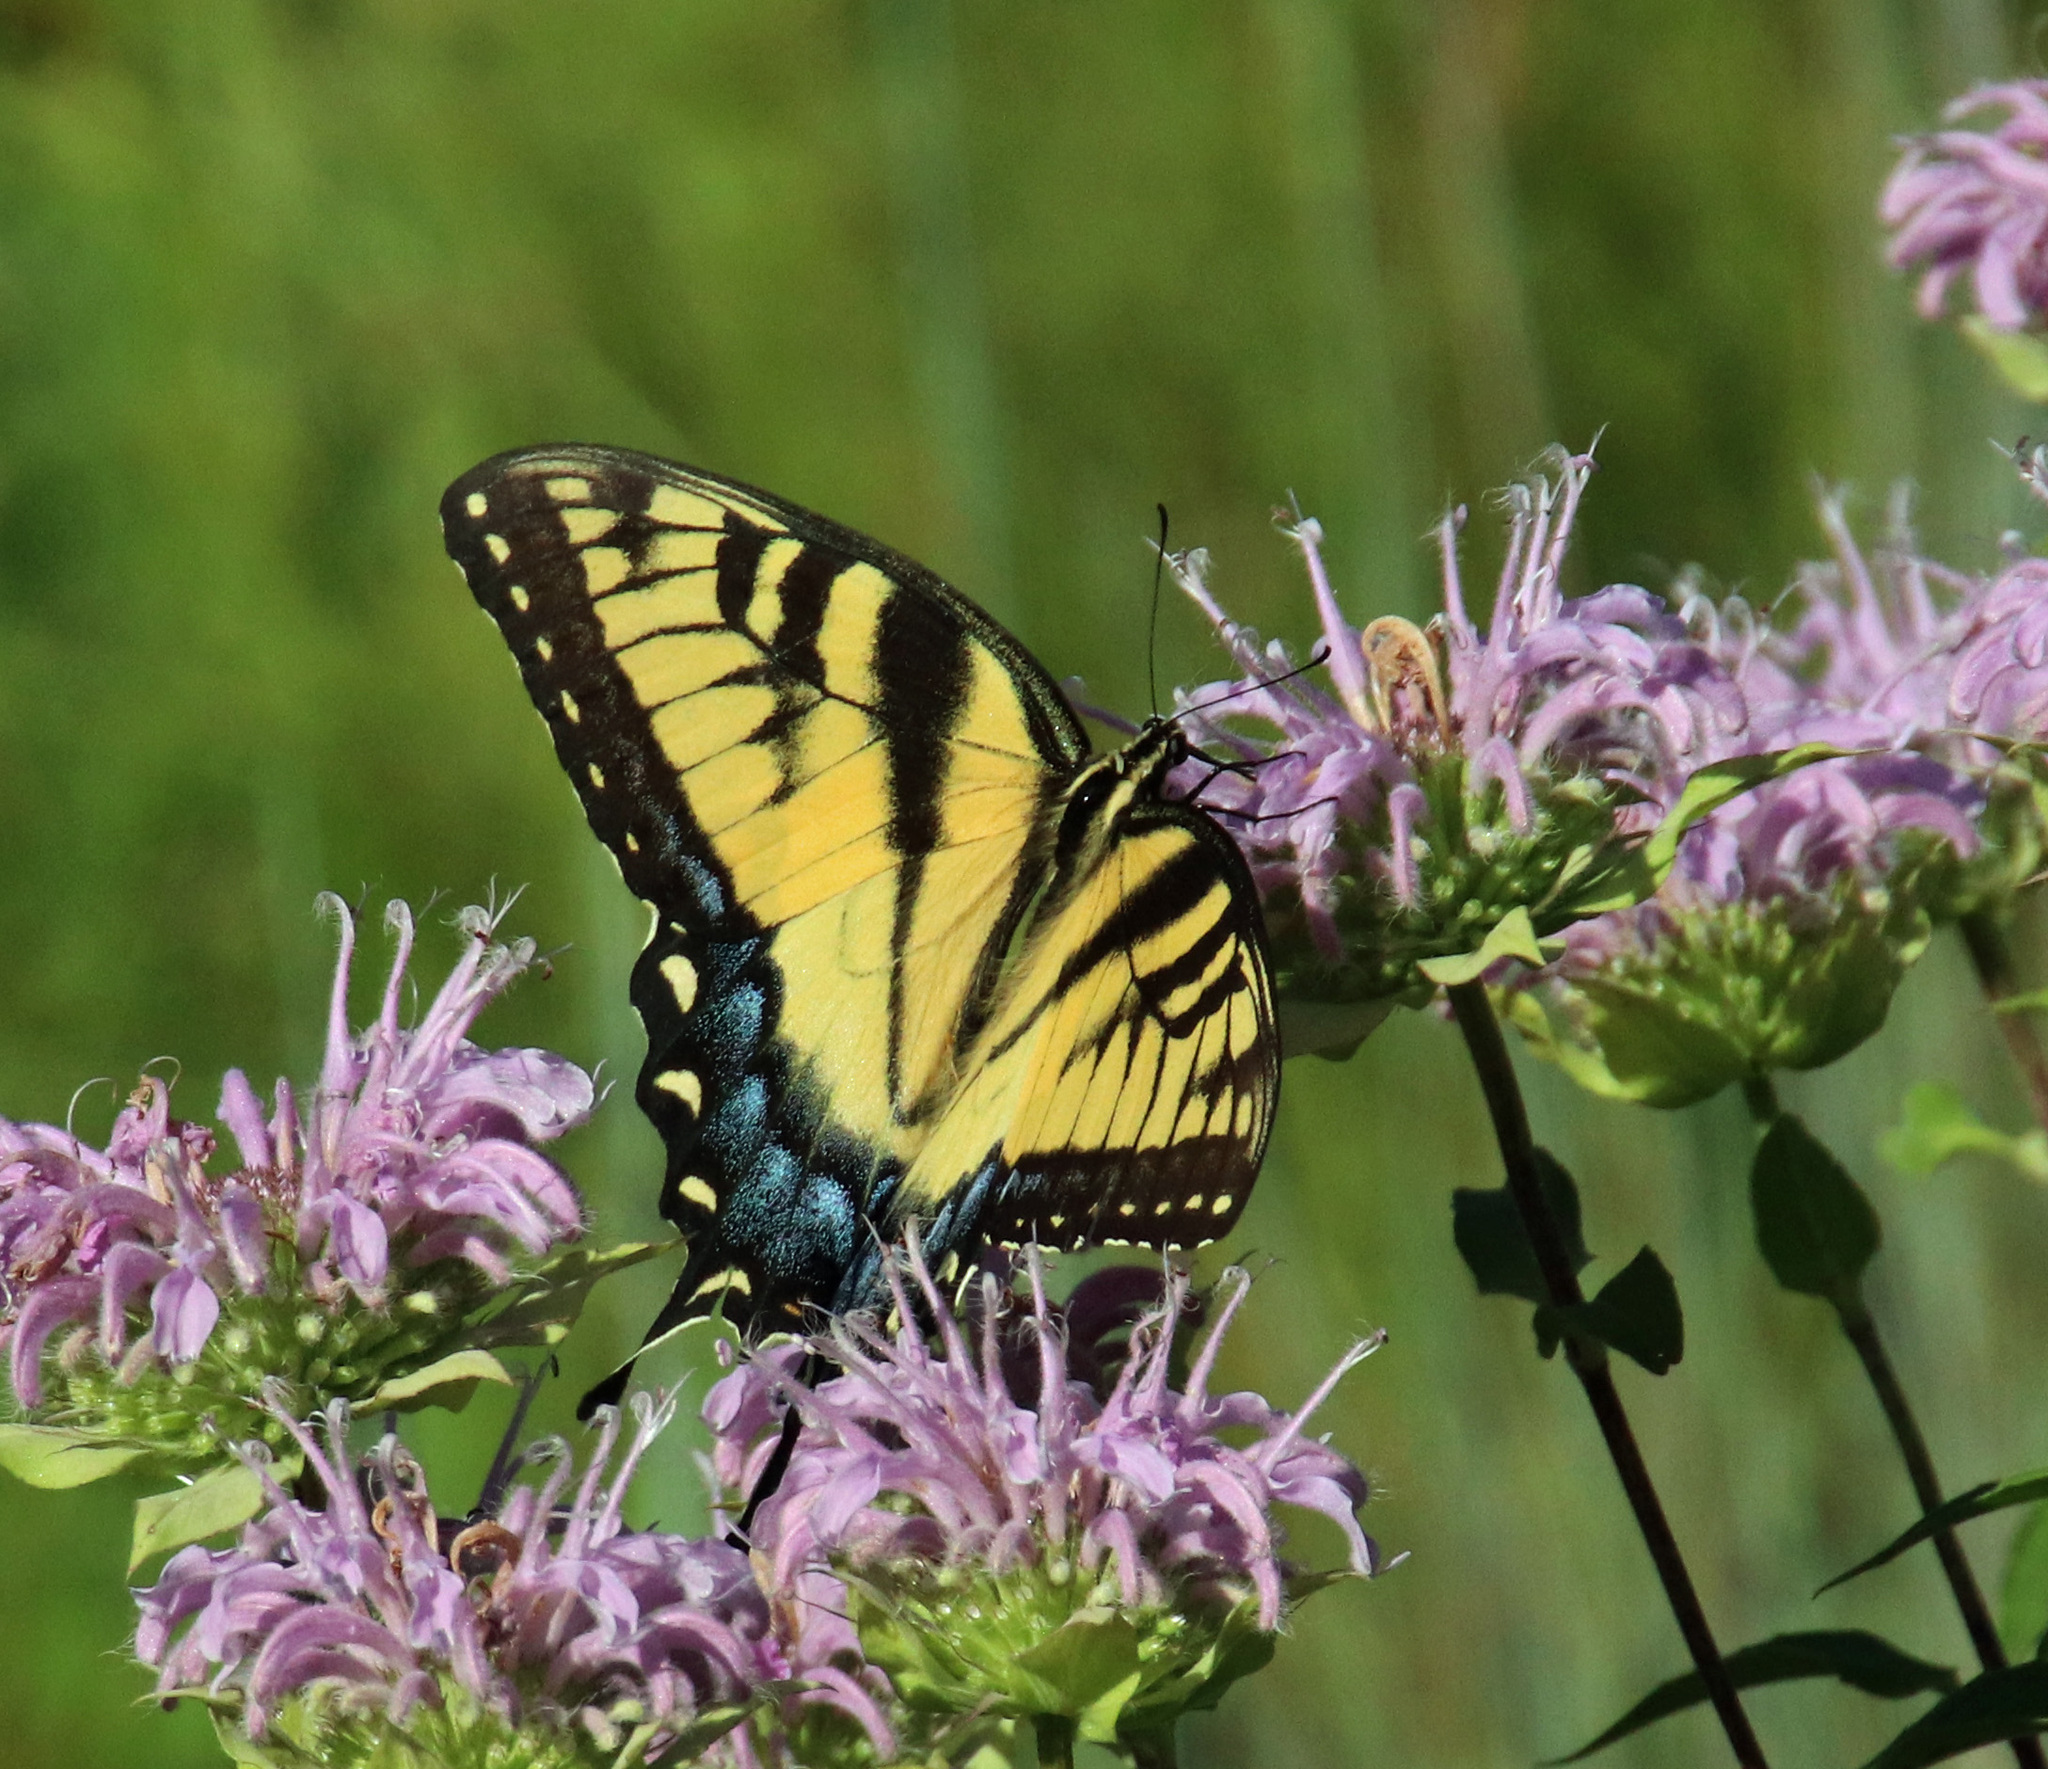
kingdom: Animalia
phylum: Arthropoda
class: Insecta
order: Lepidoptera
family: Papilionidae
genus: Papilio
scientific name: Papilio glaucus
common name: Tiger swallowtail
